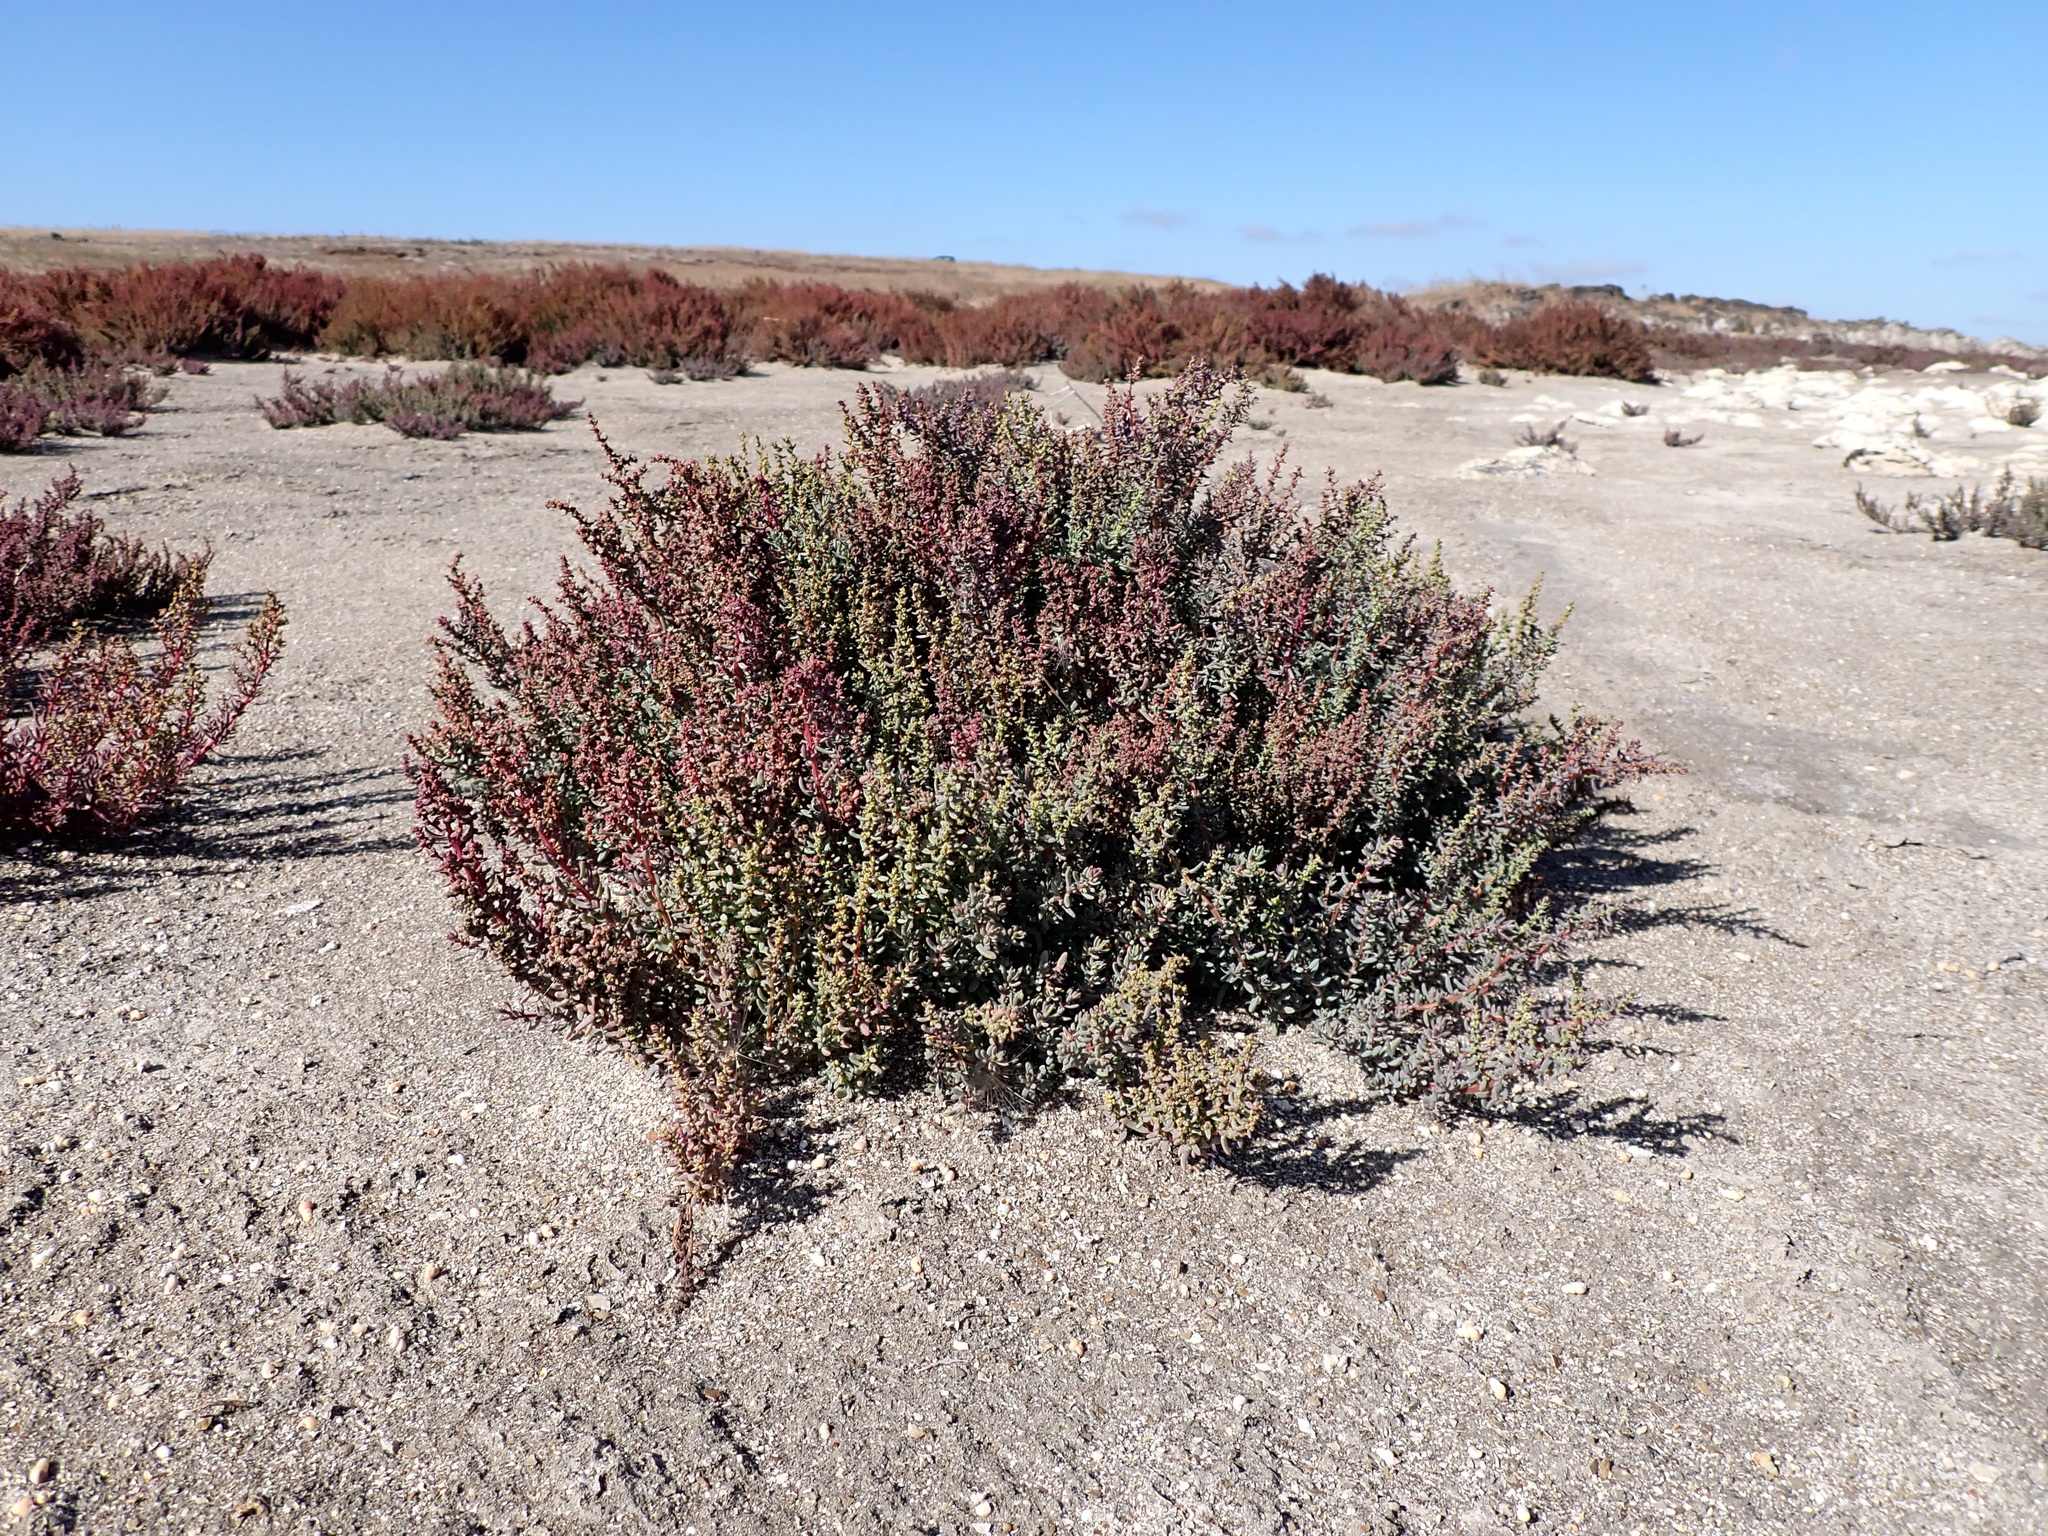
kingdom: Plantae
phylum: Tracheophyta
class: Magnoliopsida
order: Caryophyllales
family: Amaranthaceae
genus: Suaeda
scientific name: Suaeda australis
